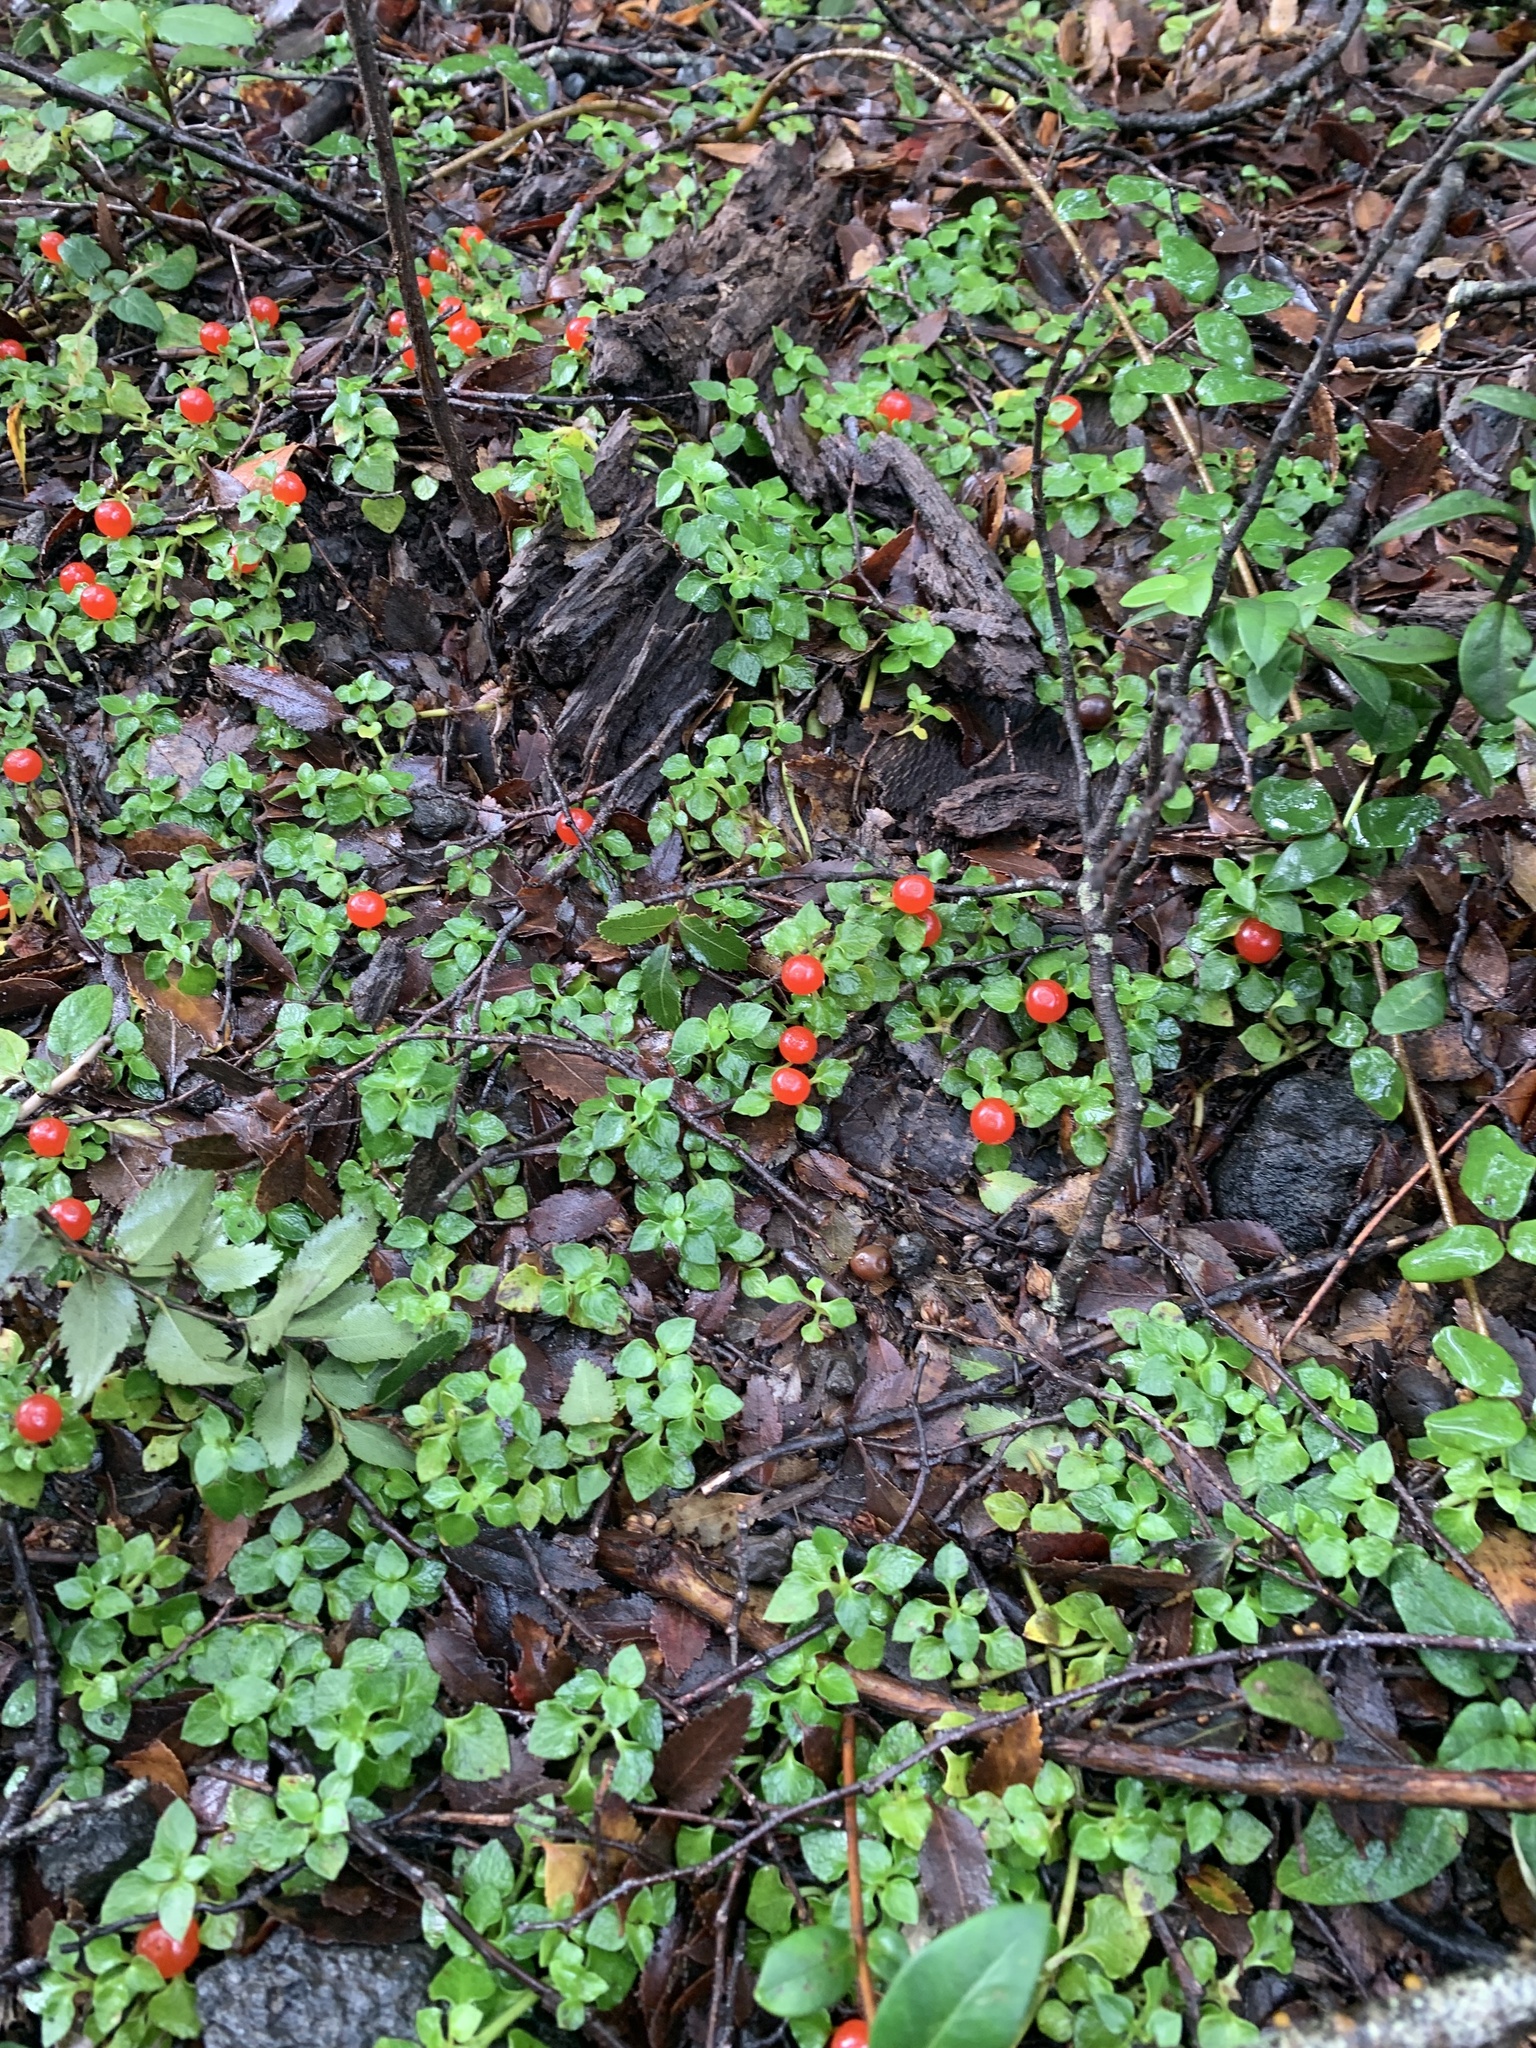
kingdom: Plantae
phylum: Tracheophyta
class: Magnoliopsida
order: Gentianales
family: Rubiaceae
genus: Nertera
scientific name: Nertera granadensis
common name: Beadplant
